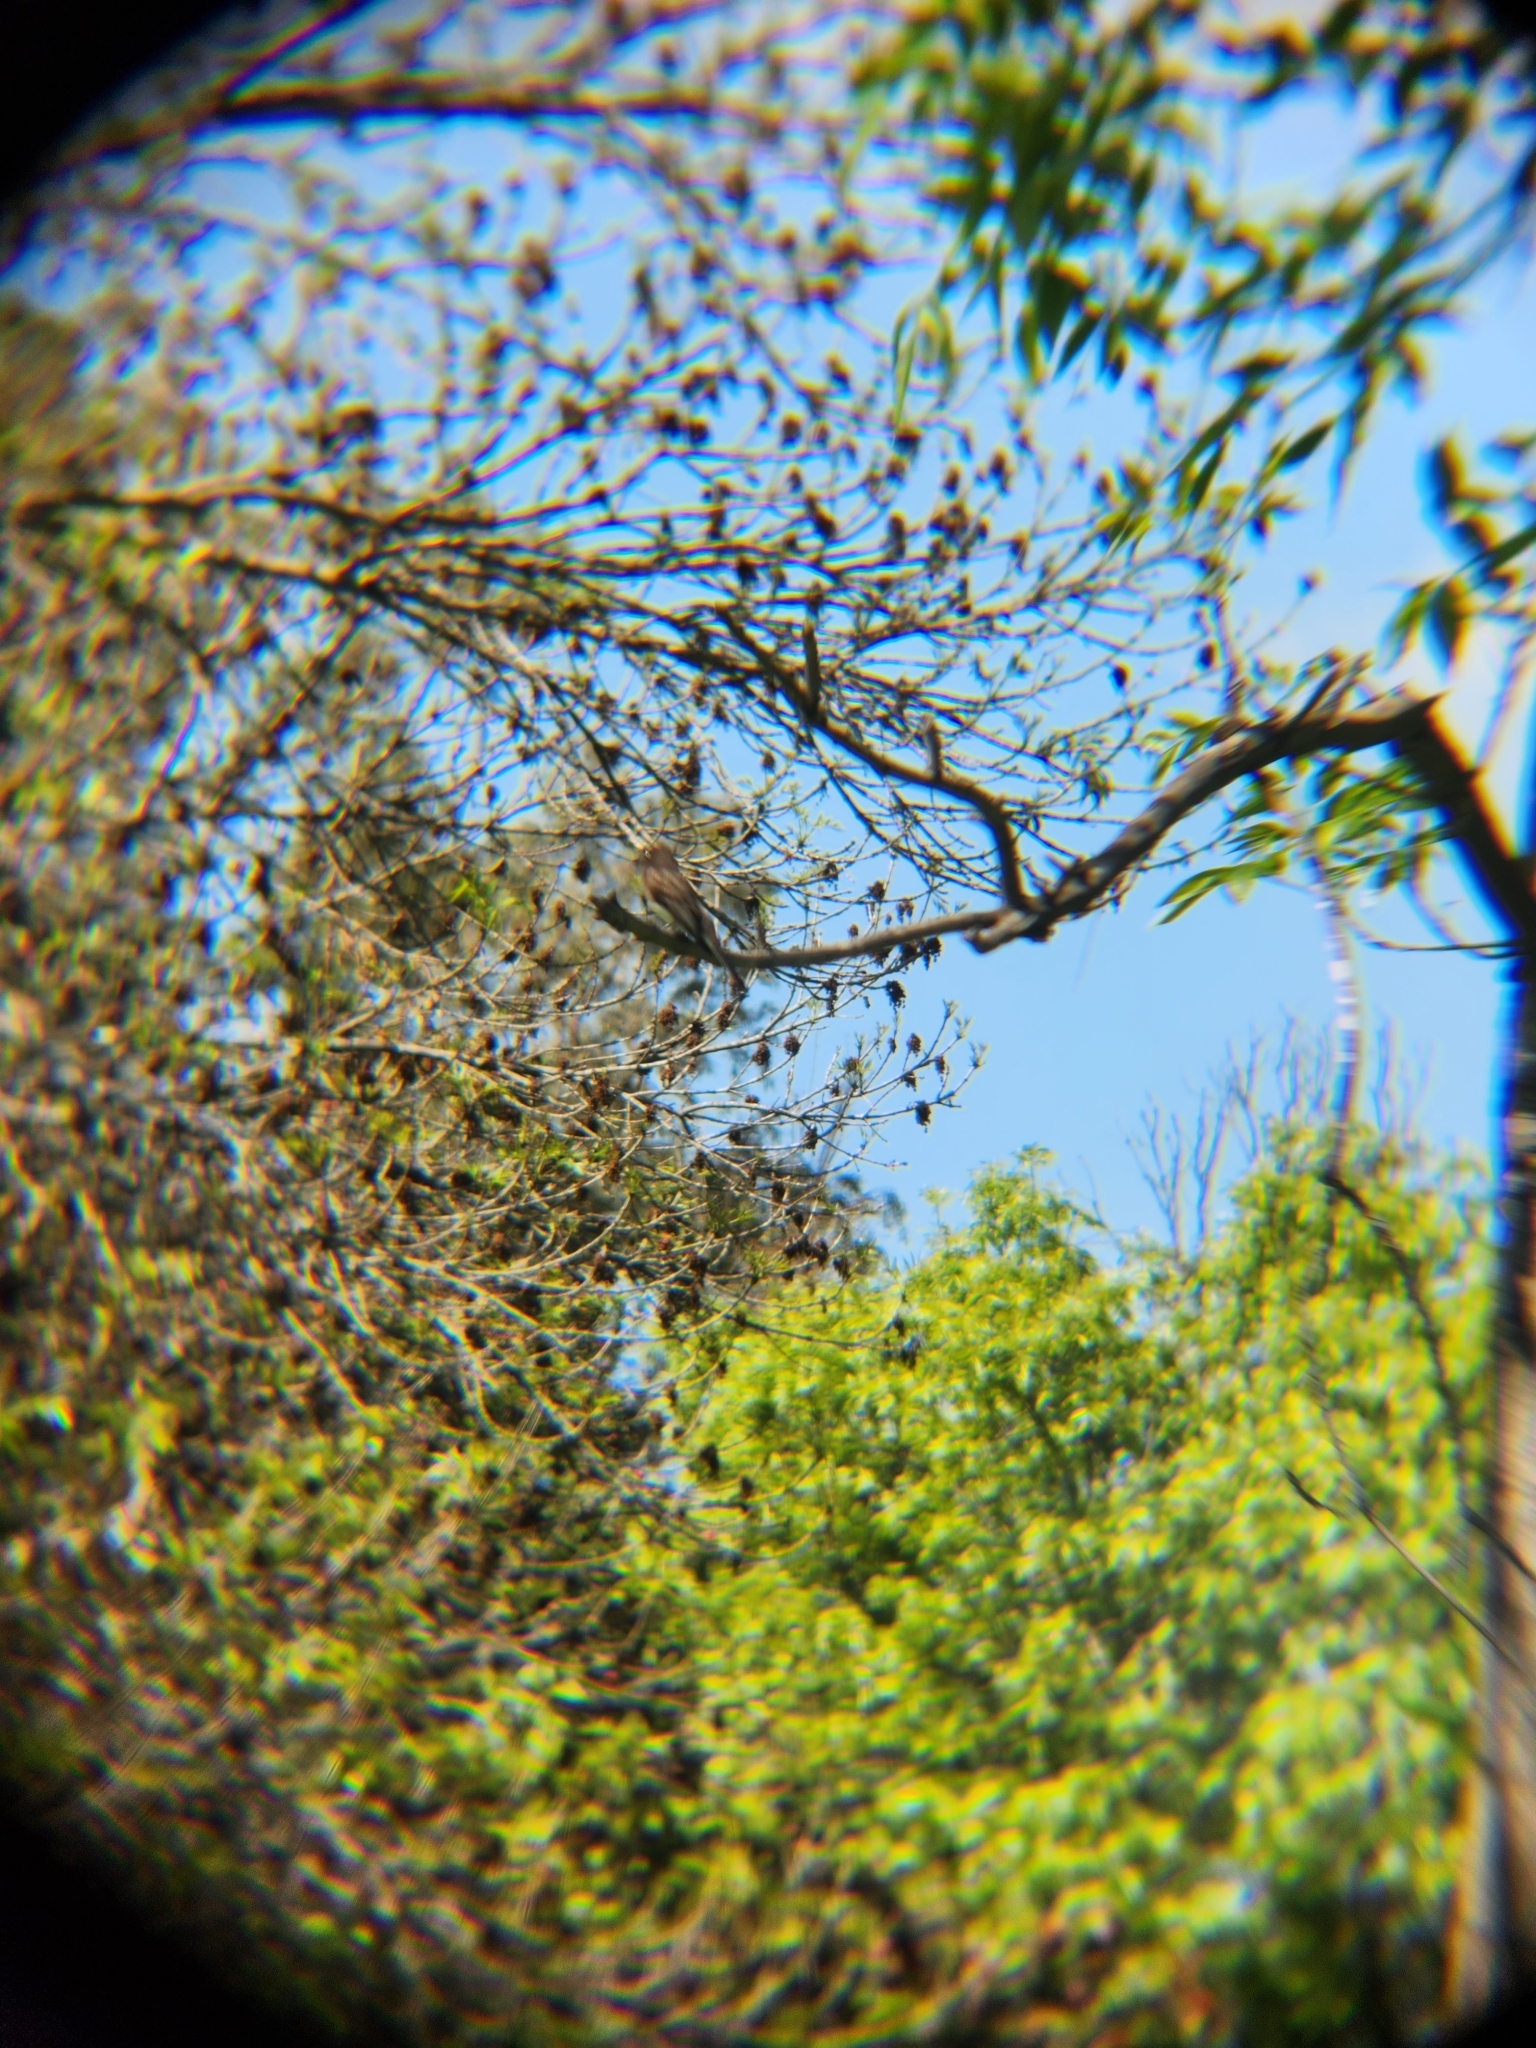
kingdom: Animalia
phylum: Chordata
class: Aves
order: Passeriformes
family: Tyrannidae
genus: Sayornis
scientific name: Sayornis nigricans
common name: Black phoebe
